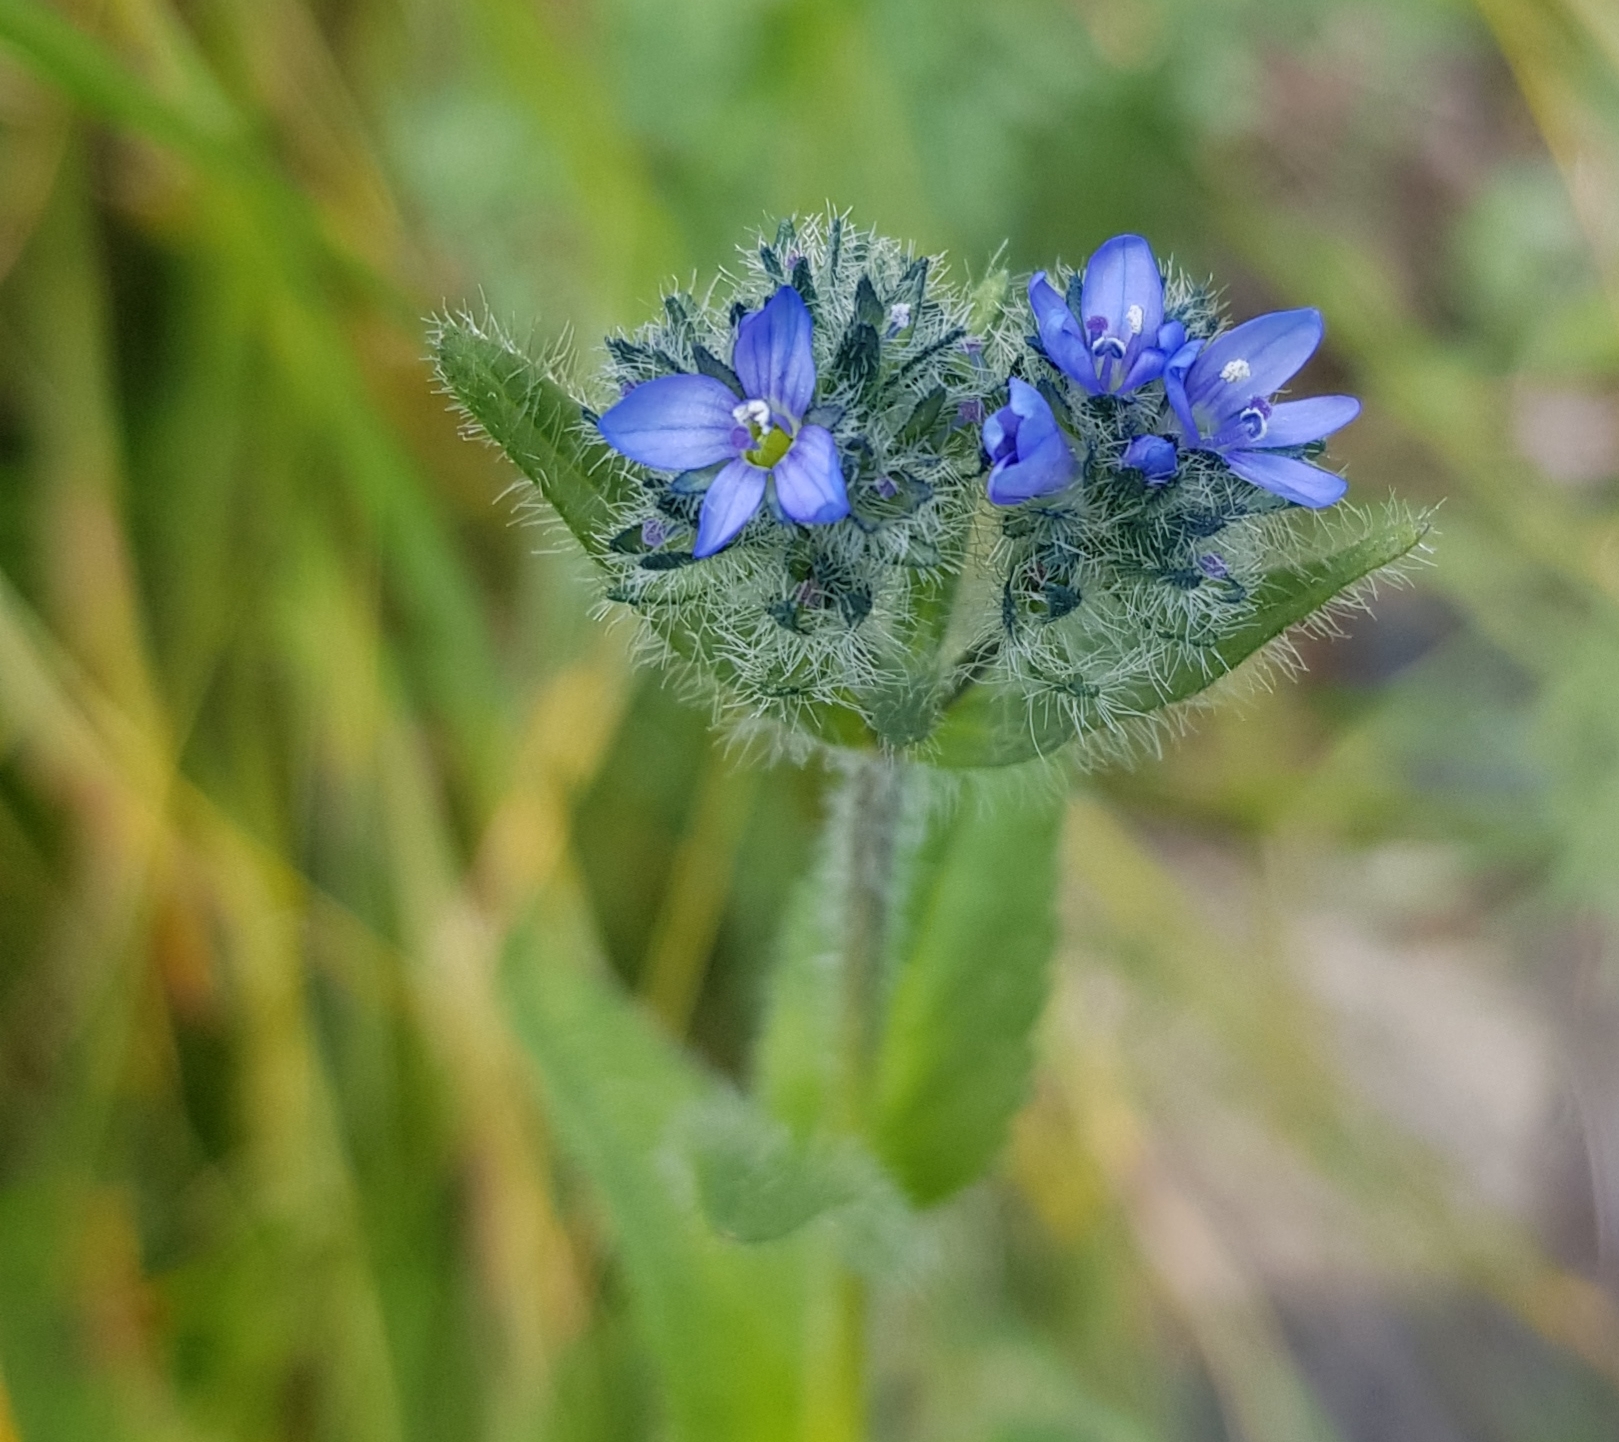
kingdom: Plantae
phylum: Tracheophyta
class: Magnoliopsida
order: Lamiales
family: Plantaginaceae
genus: Veronica
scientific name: Veronica alpina
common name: Alpine speedwell
